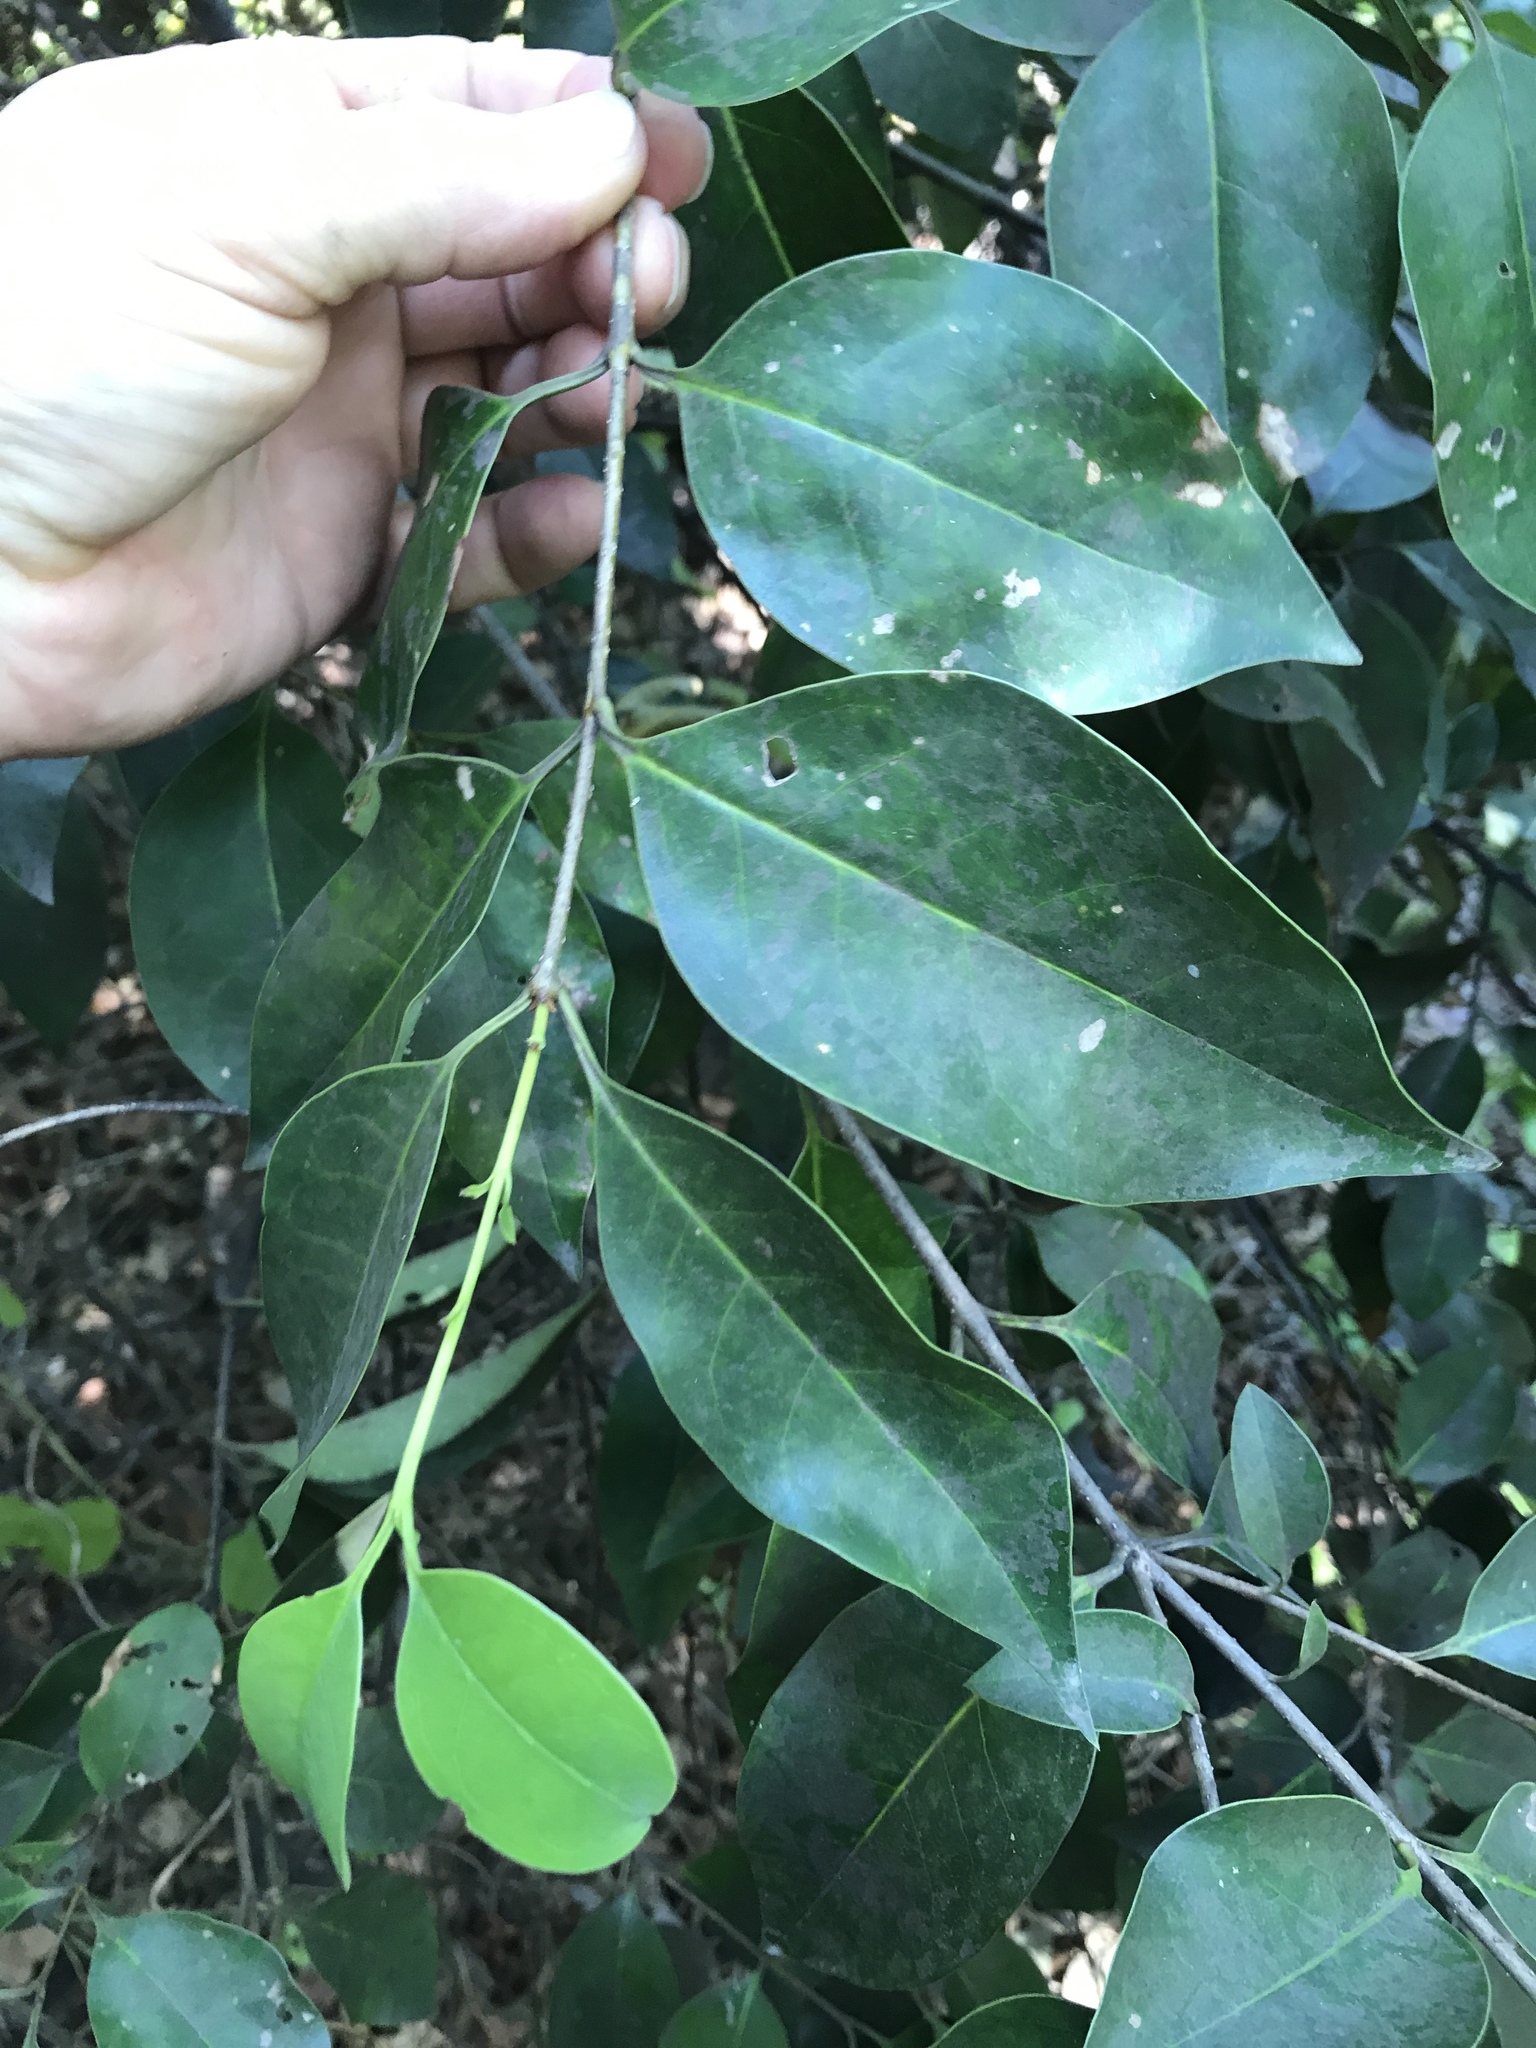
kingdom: Plantae
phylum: Tracheophyta
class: Magnoliopsida
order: Lamiales
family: Oleaceae
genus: Ligustrum
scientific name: Ligustrum lucidum
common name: Glossy privet
